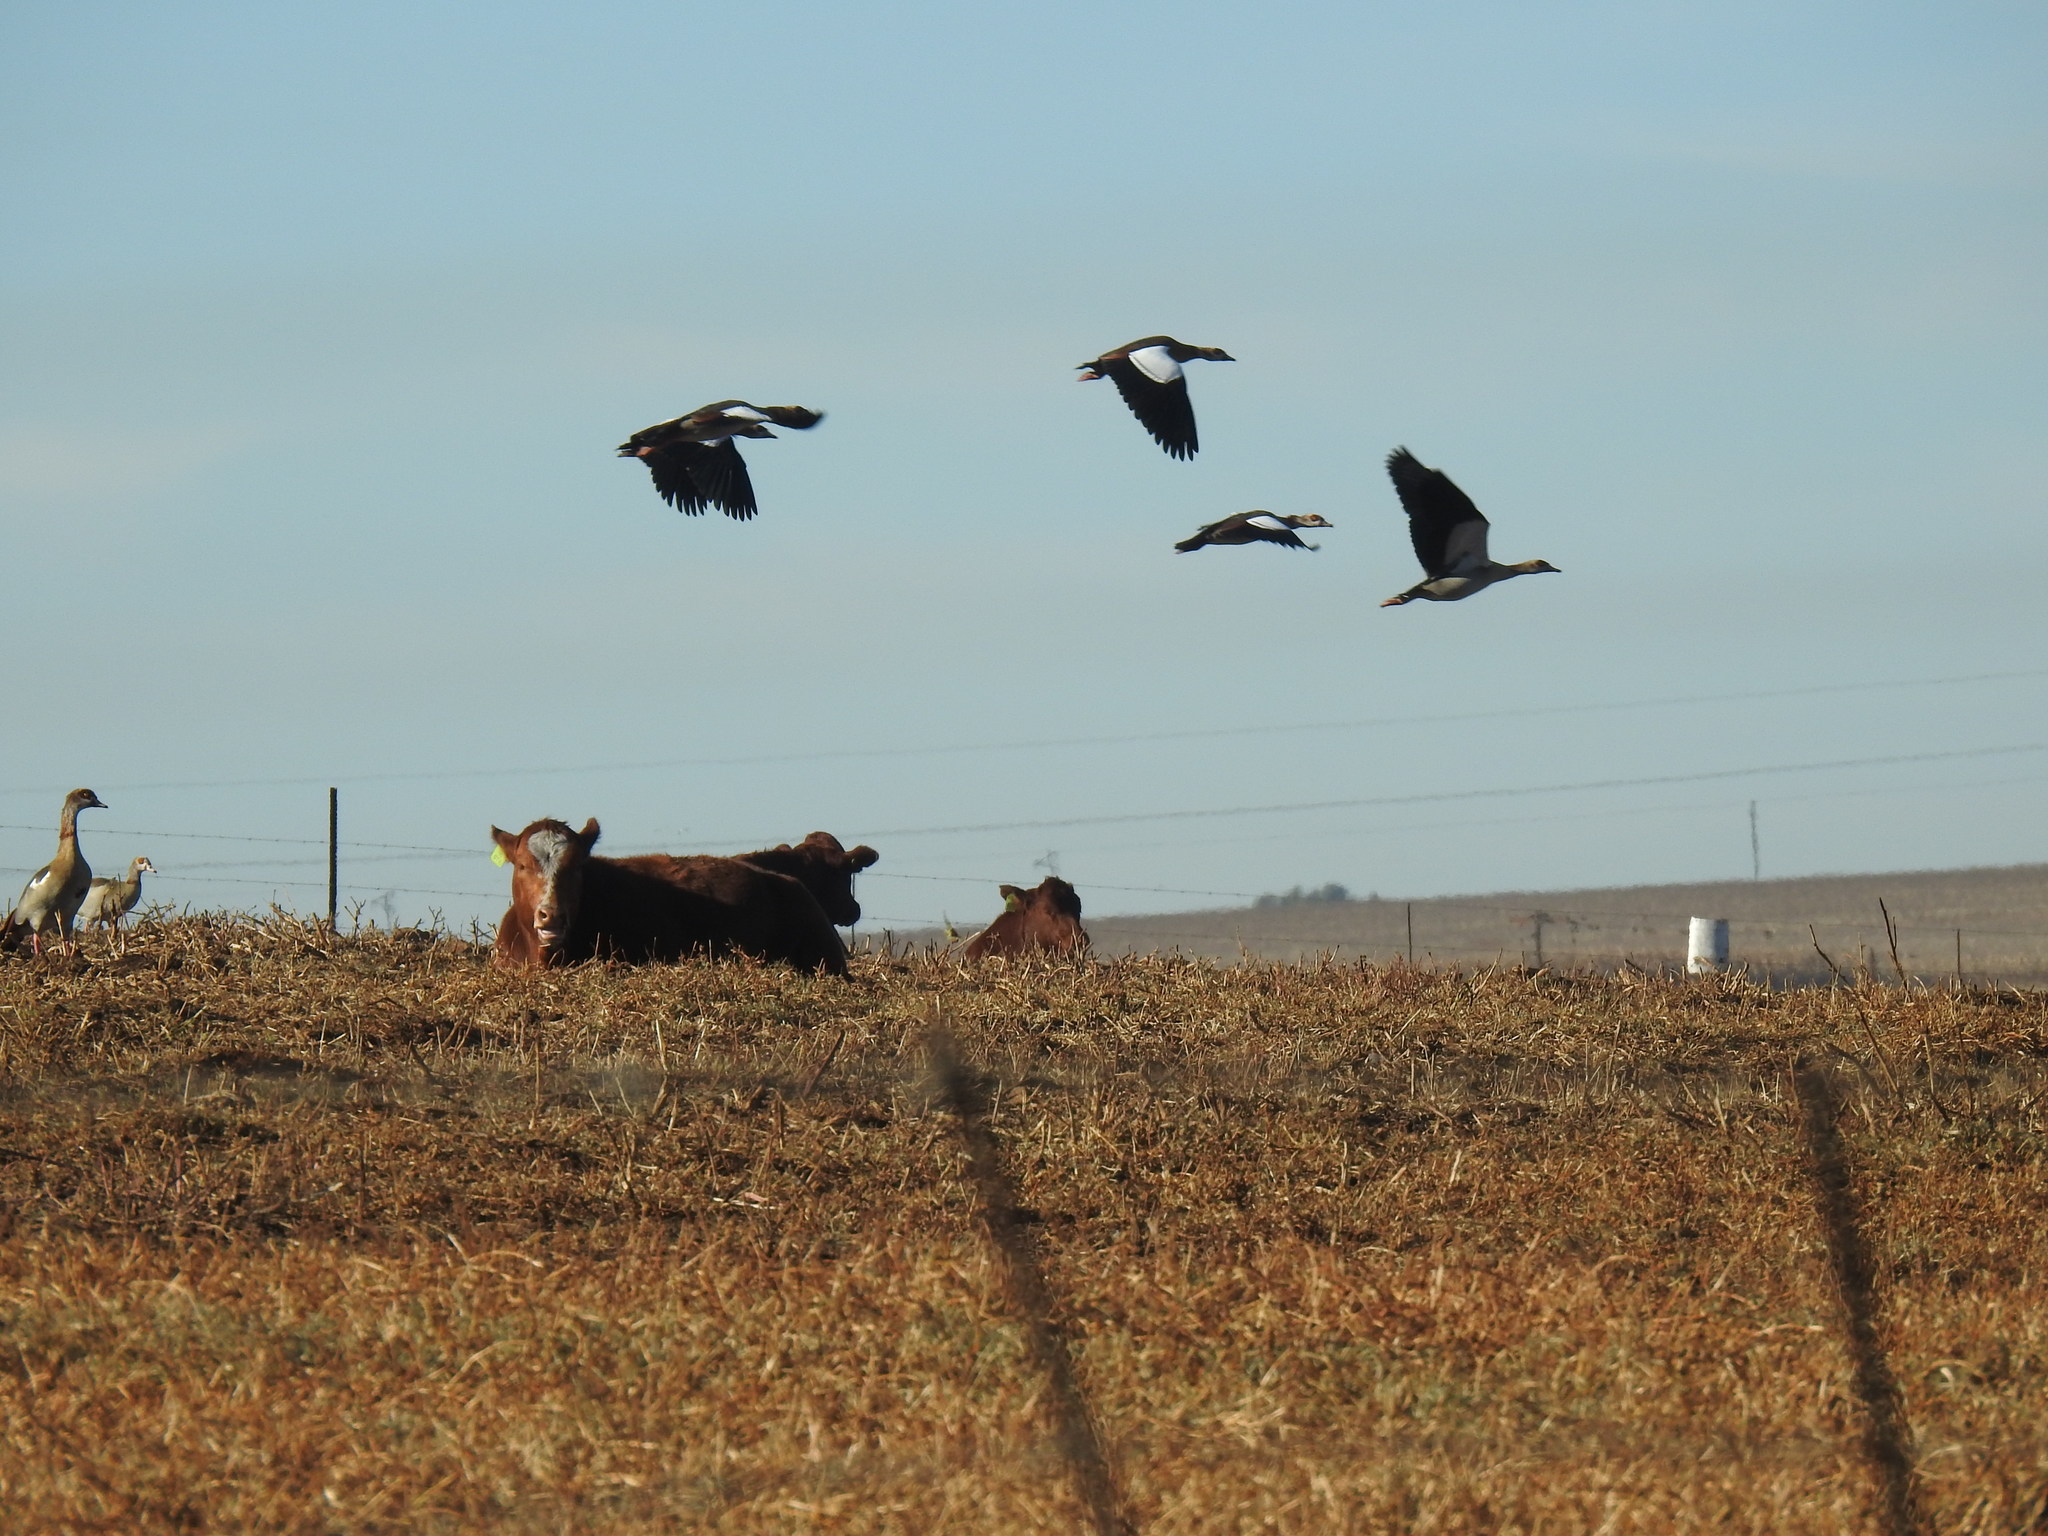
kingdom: Animalia
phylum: Chordata
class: Aves
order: Anseriformes
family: Anatidae
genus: Alopochen
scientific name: Alopochen aegyptiaca
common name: Egyptian goose
